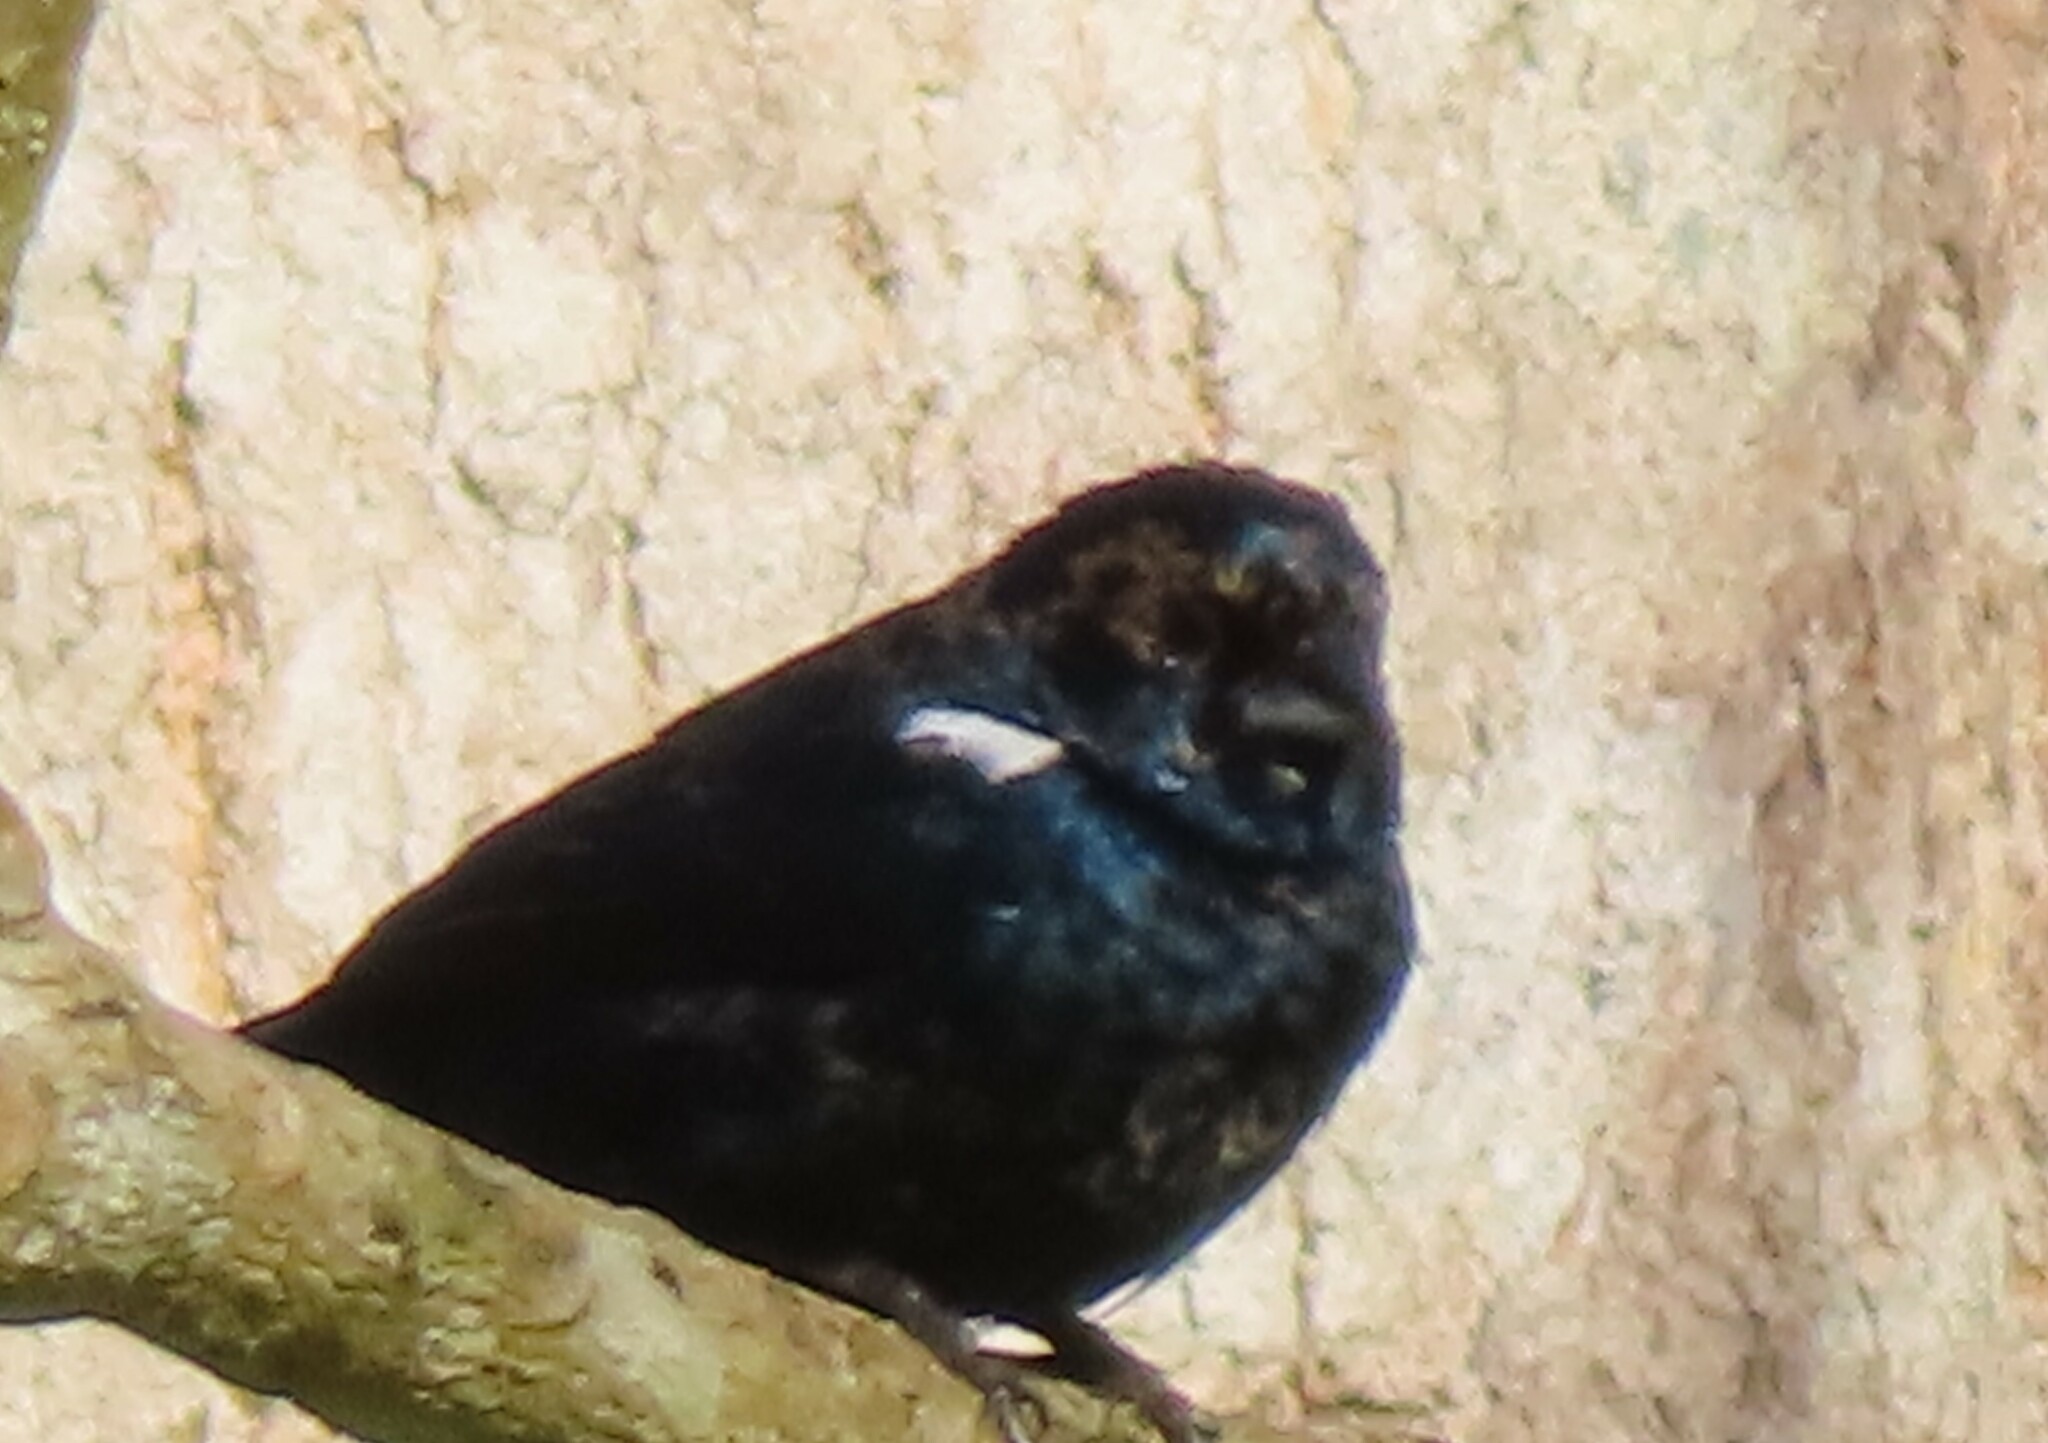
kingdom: Animalia
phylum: Chordata
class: Aves
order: Passeriformes
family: Thraupidae
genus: Volatinia
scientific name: Volatinia jacarina
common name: Blue-black grassquit
